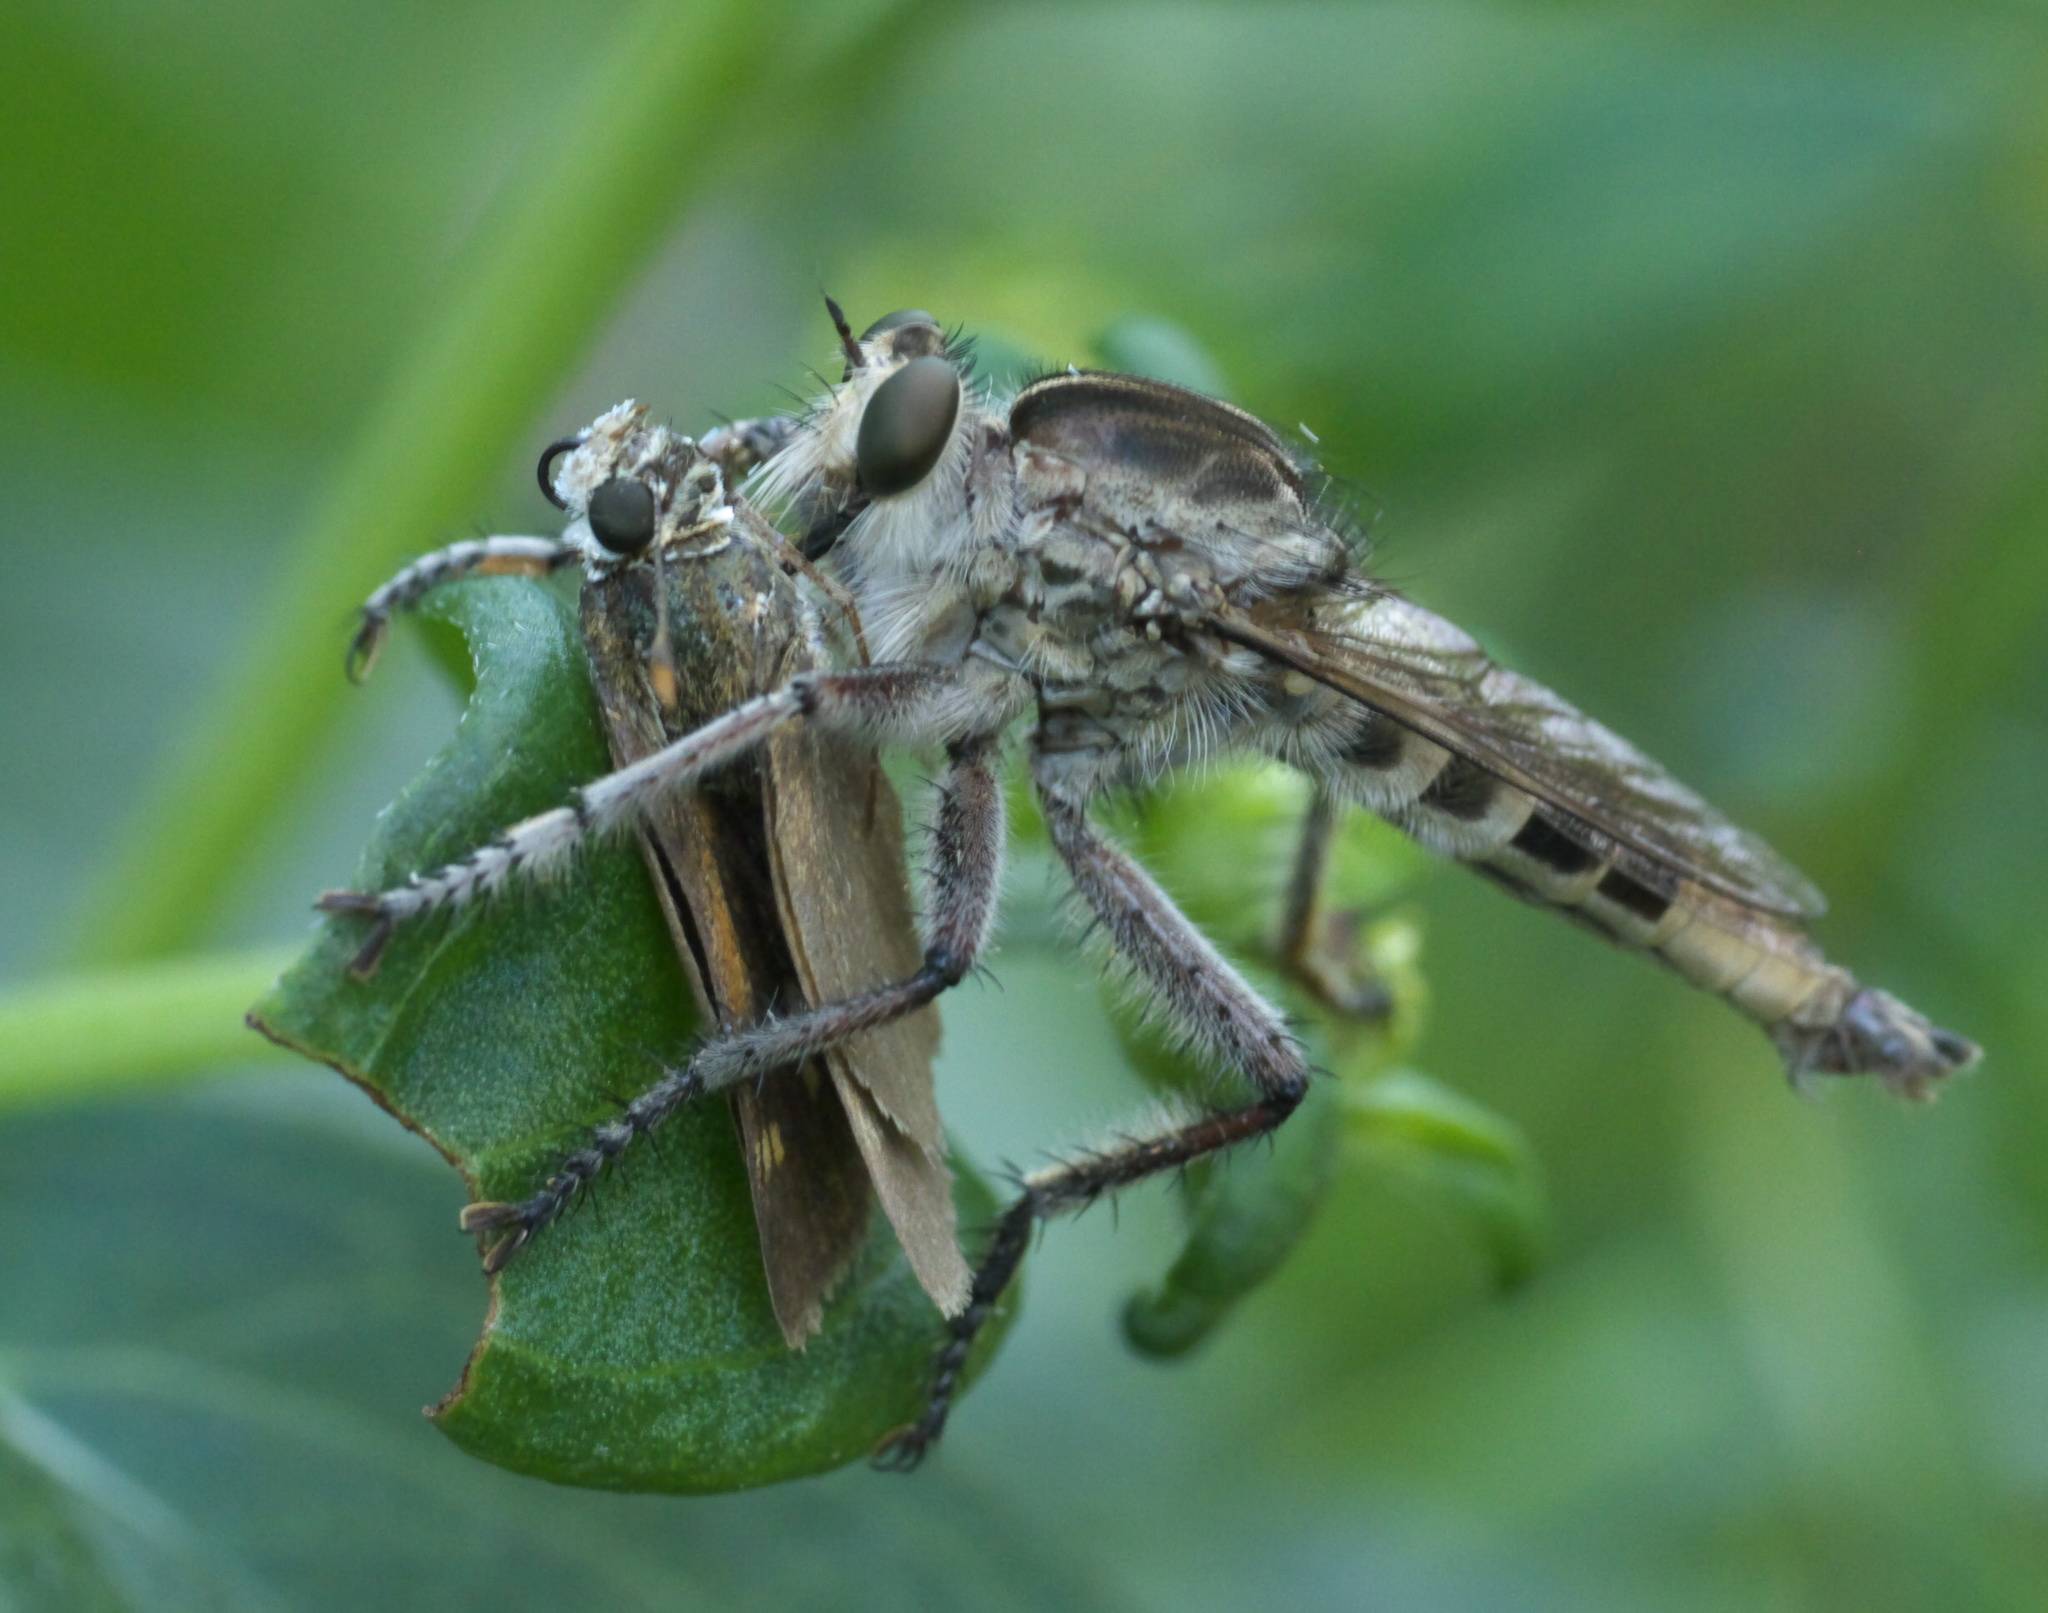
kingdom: Animalia
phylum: Arthropoda
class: Insecta
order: Diptera
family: Asilidae
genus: Triorla
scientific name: Triorla interrupta
